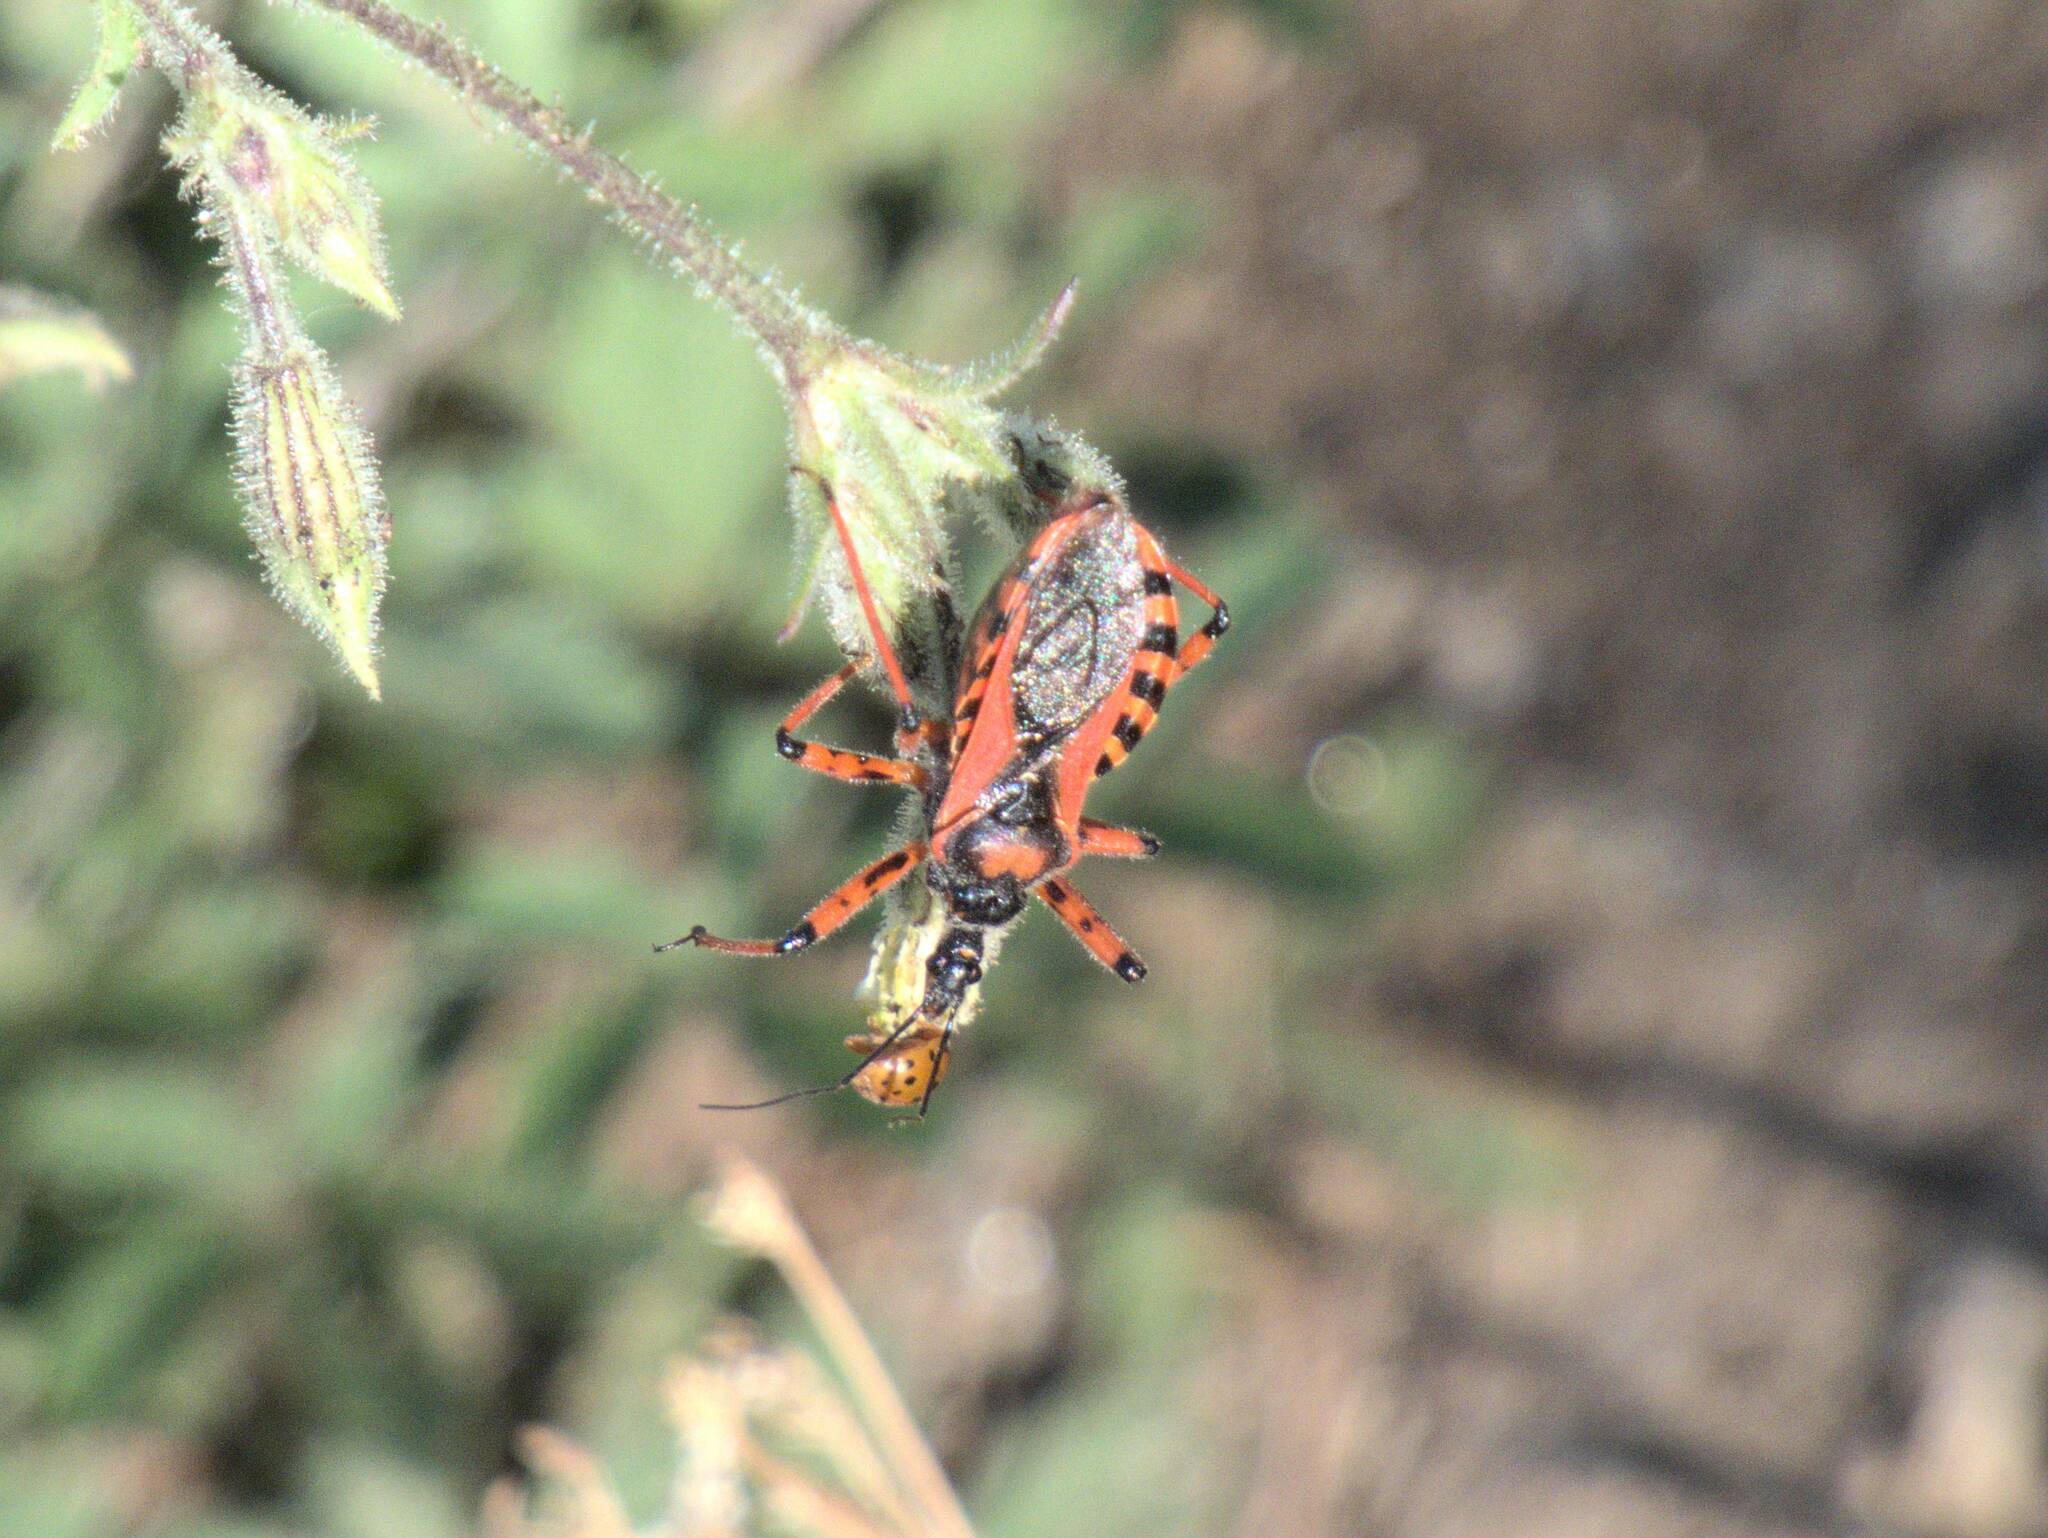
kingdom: Animalia
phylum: Arthropoda
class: Insecta
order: Hemiptera
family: Reduviidae
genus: Rhynocoris
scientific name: Rhynocoris iracundus
